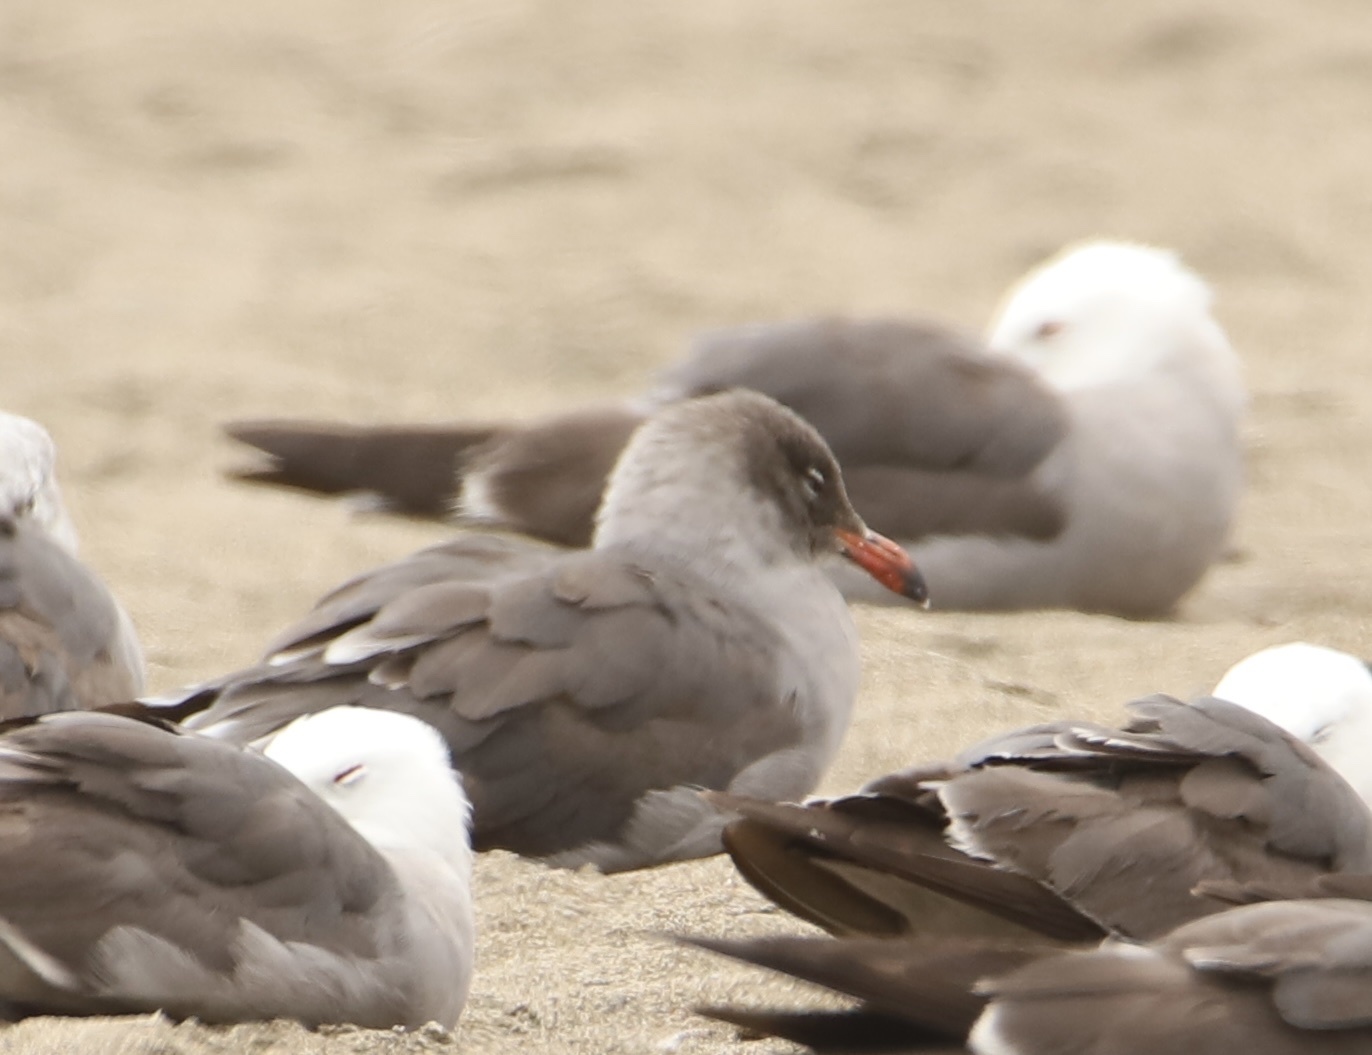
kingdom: Animalia
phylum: Chordata
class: Aves
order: Charadriiformes
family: Laridae
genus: Larus
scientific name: Larus heermanni
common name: Heermann's gull
